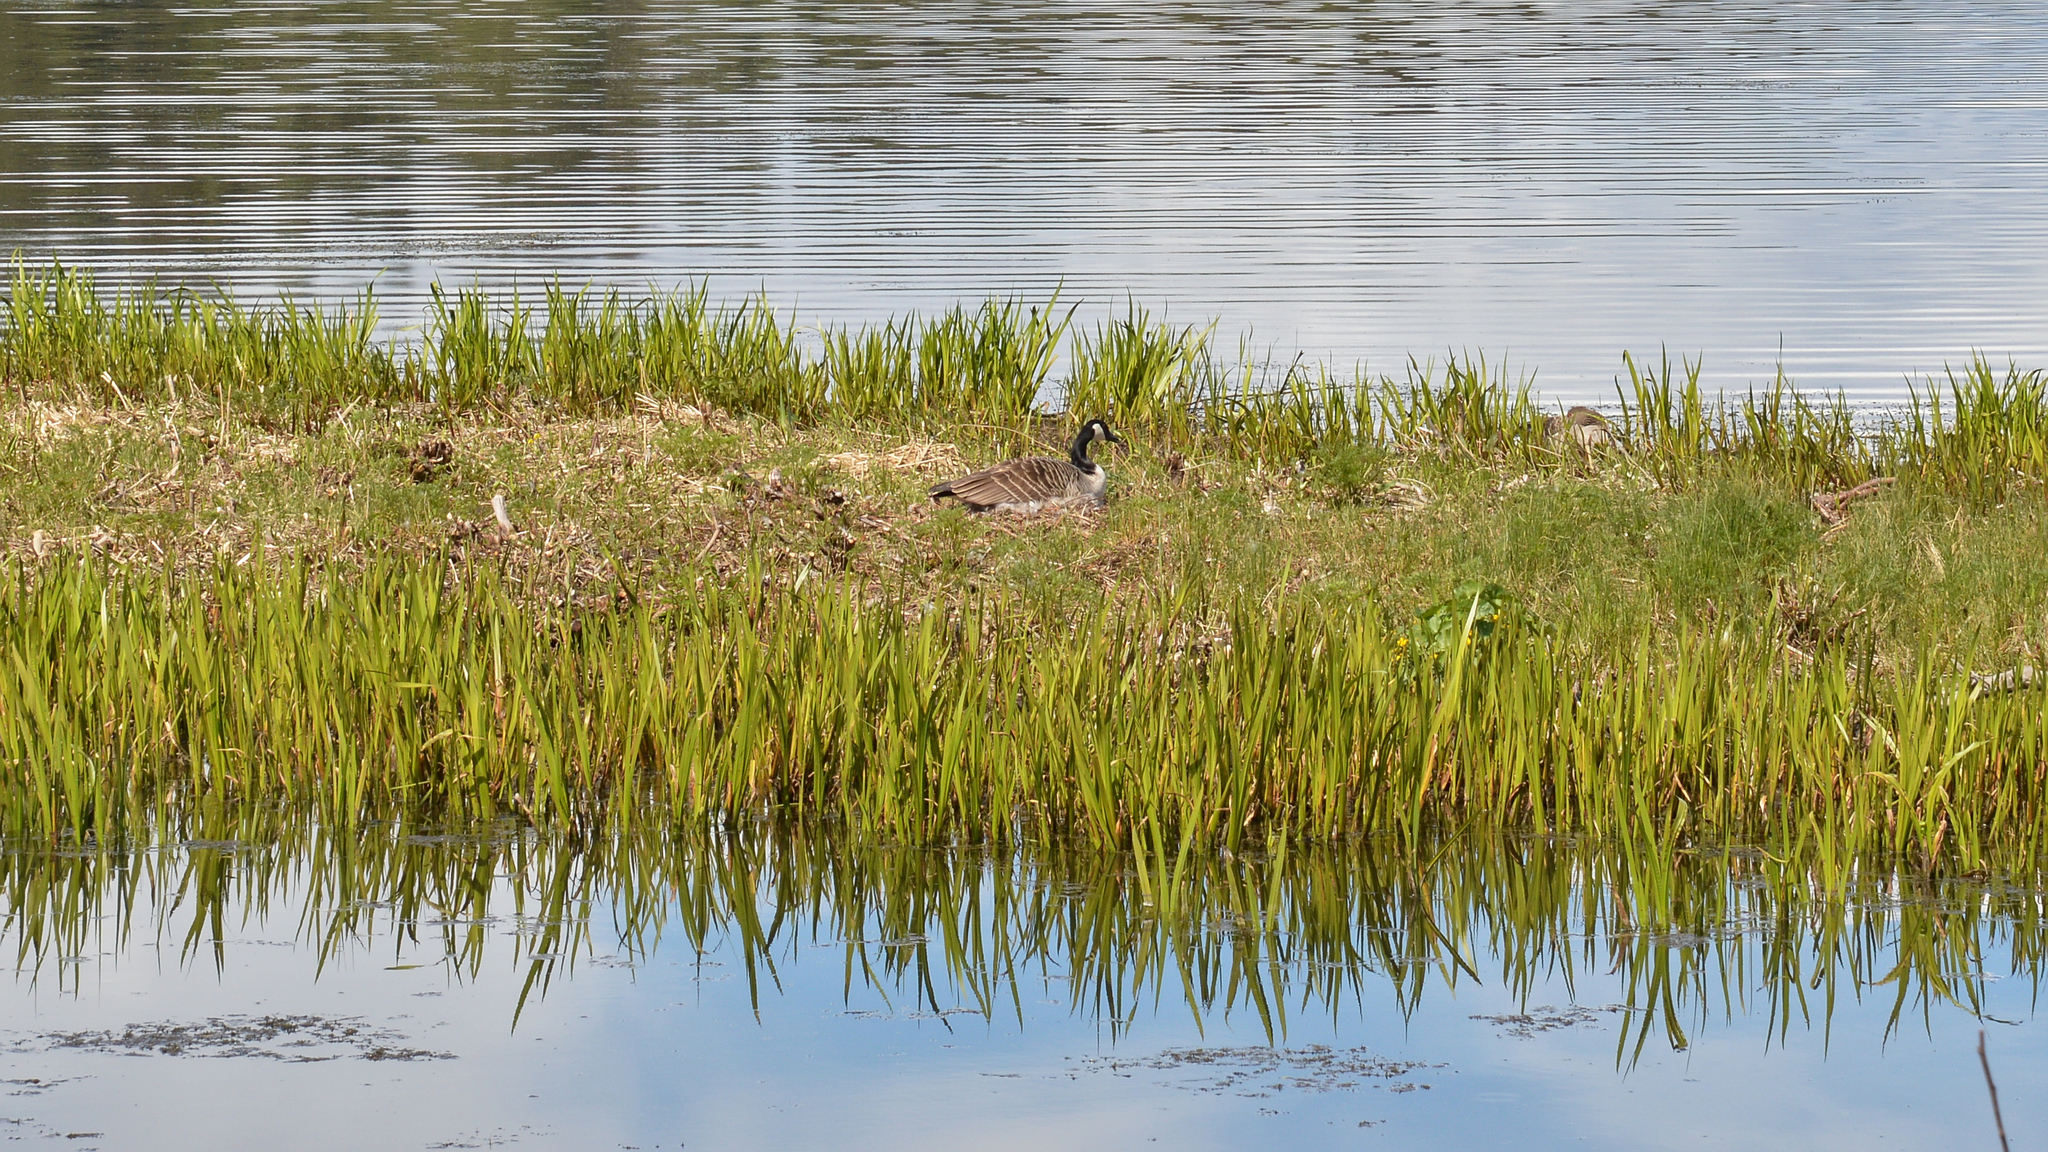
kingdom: Animalia
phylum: Chordata
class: Aves
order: Anseriformes
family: Anatidae
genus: Branta
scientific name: Branta canadensis
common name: Canada goose
